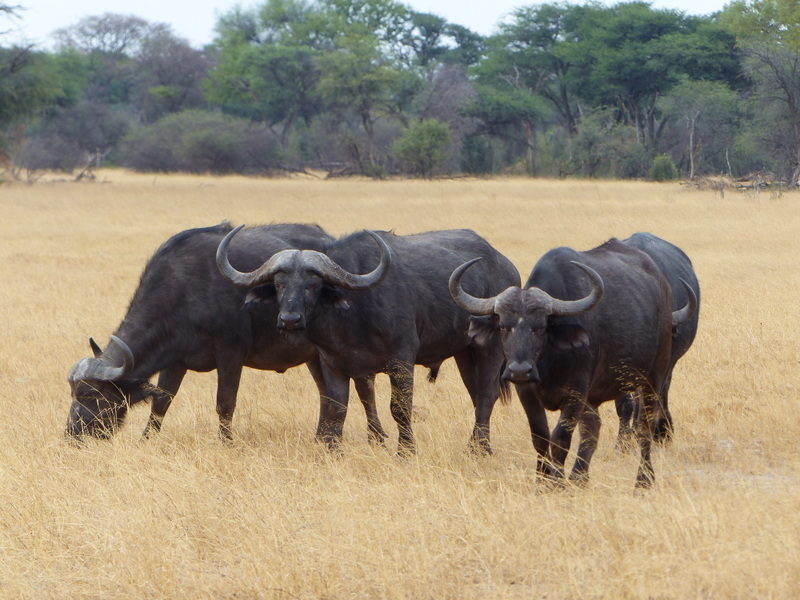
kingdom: Animalia
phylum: Chordata
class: Mammalia
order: Artiodactyla
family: Bovidae
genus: Syncerus
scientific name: Syncerus caffer
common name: African buffalo
